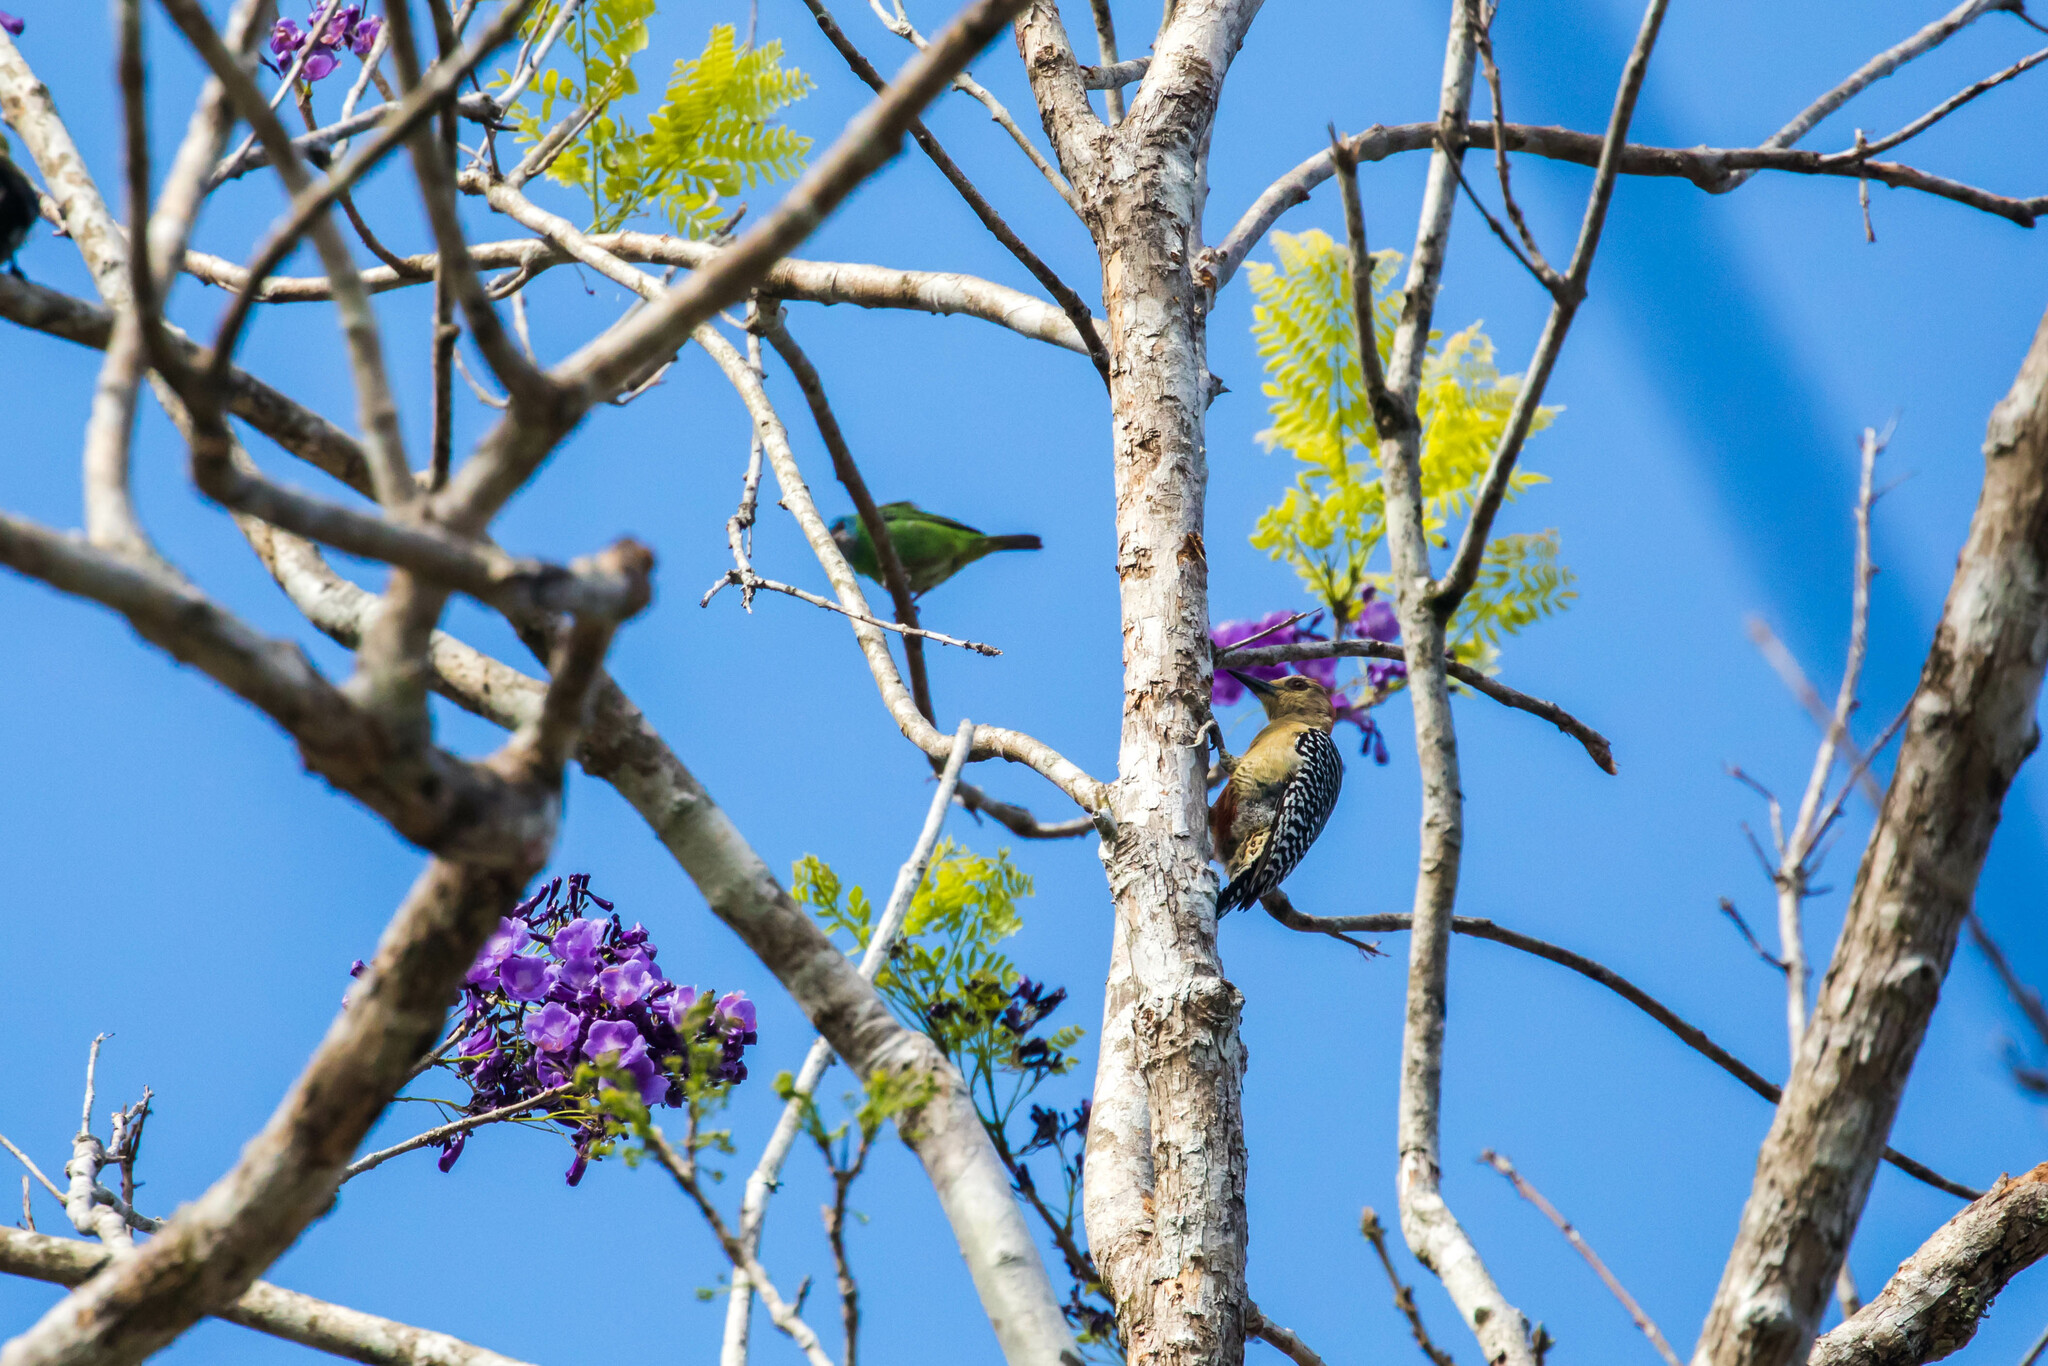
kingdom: Animalia
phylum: Chordata
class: Aves
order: Piciformes
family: Picidae
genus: Melanerpes
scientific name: Melanerpes rubricapillus
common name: Red-crowned woodpecker
